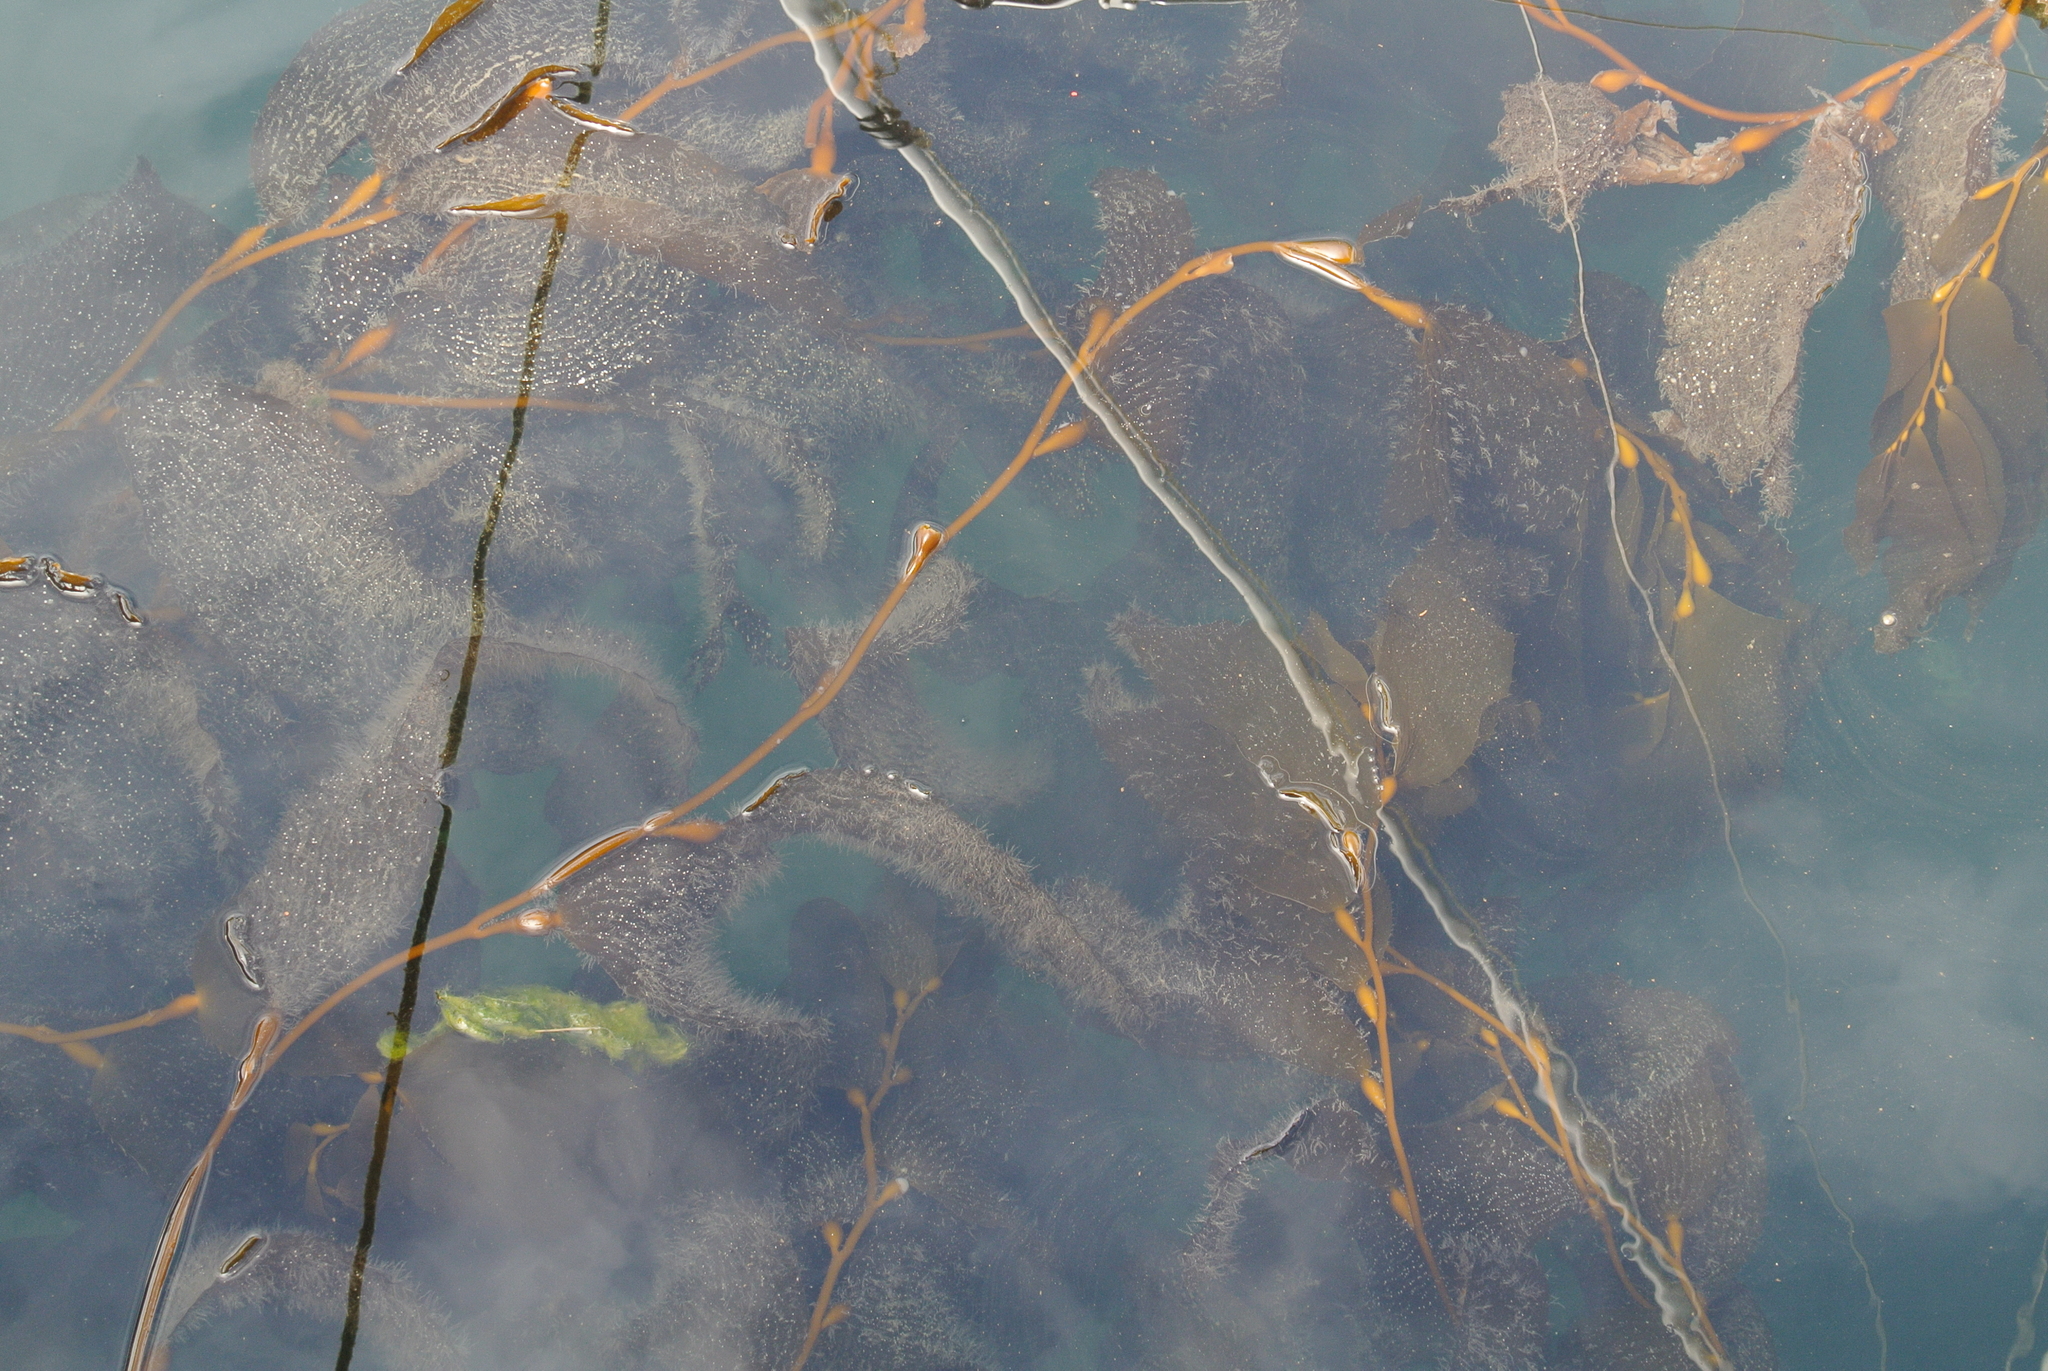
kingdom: Chromista
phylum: Ochrophyta
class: Phaeophyceae
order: Laminariales
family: Laminariaceae
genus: Macrocystis
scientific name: Macrocystis pyrifera
